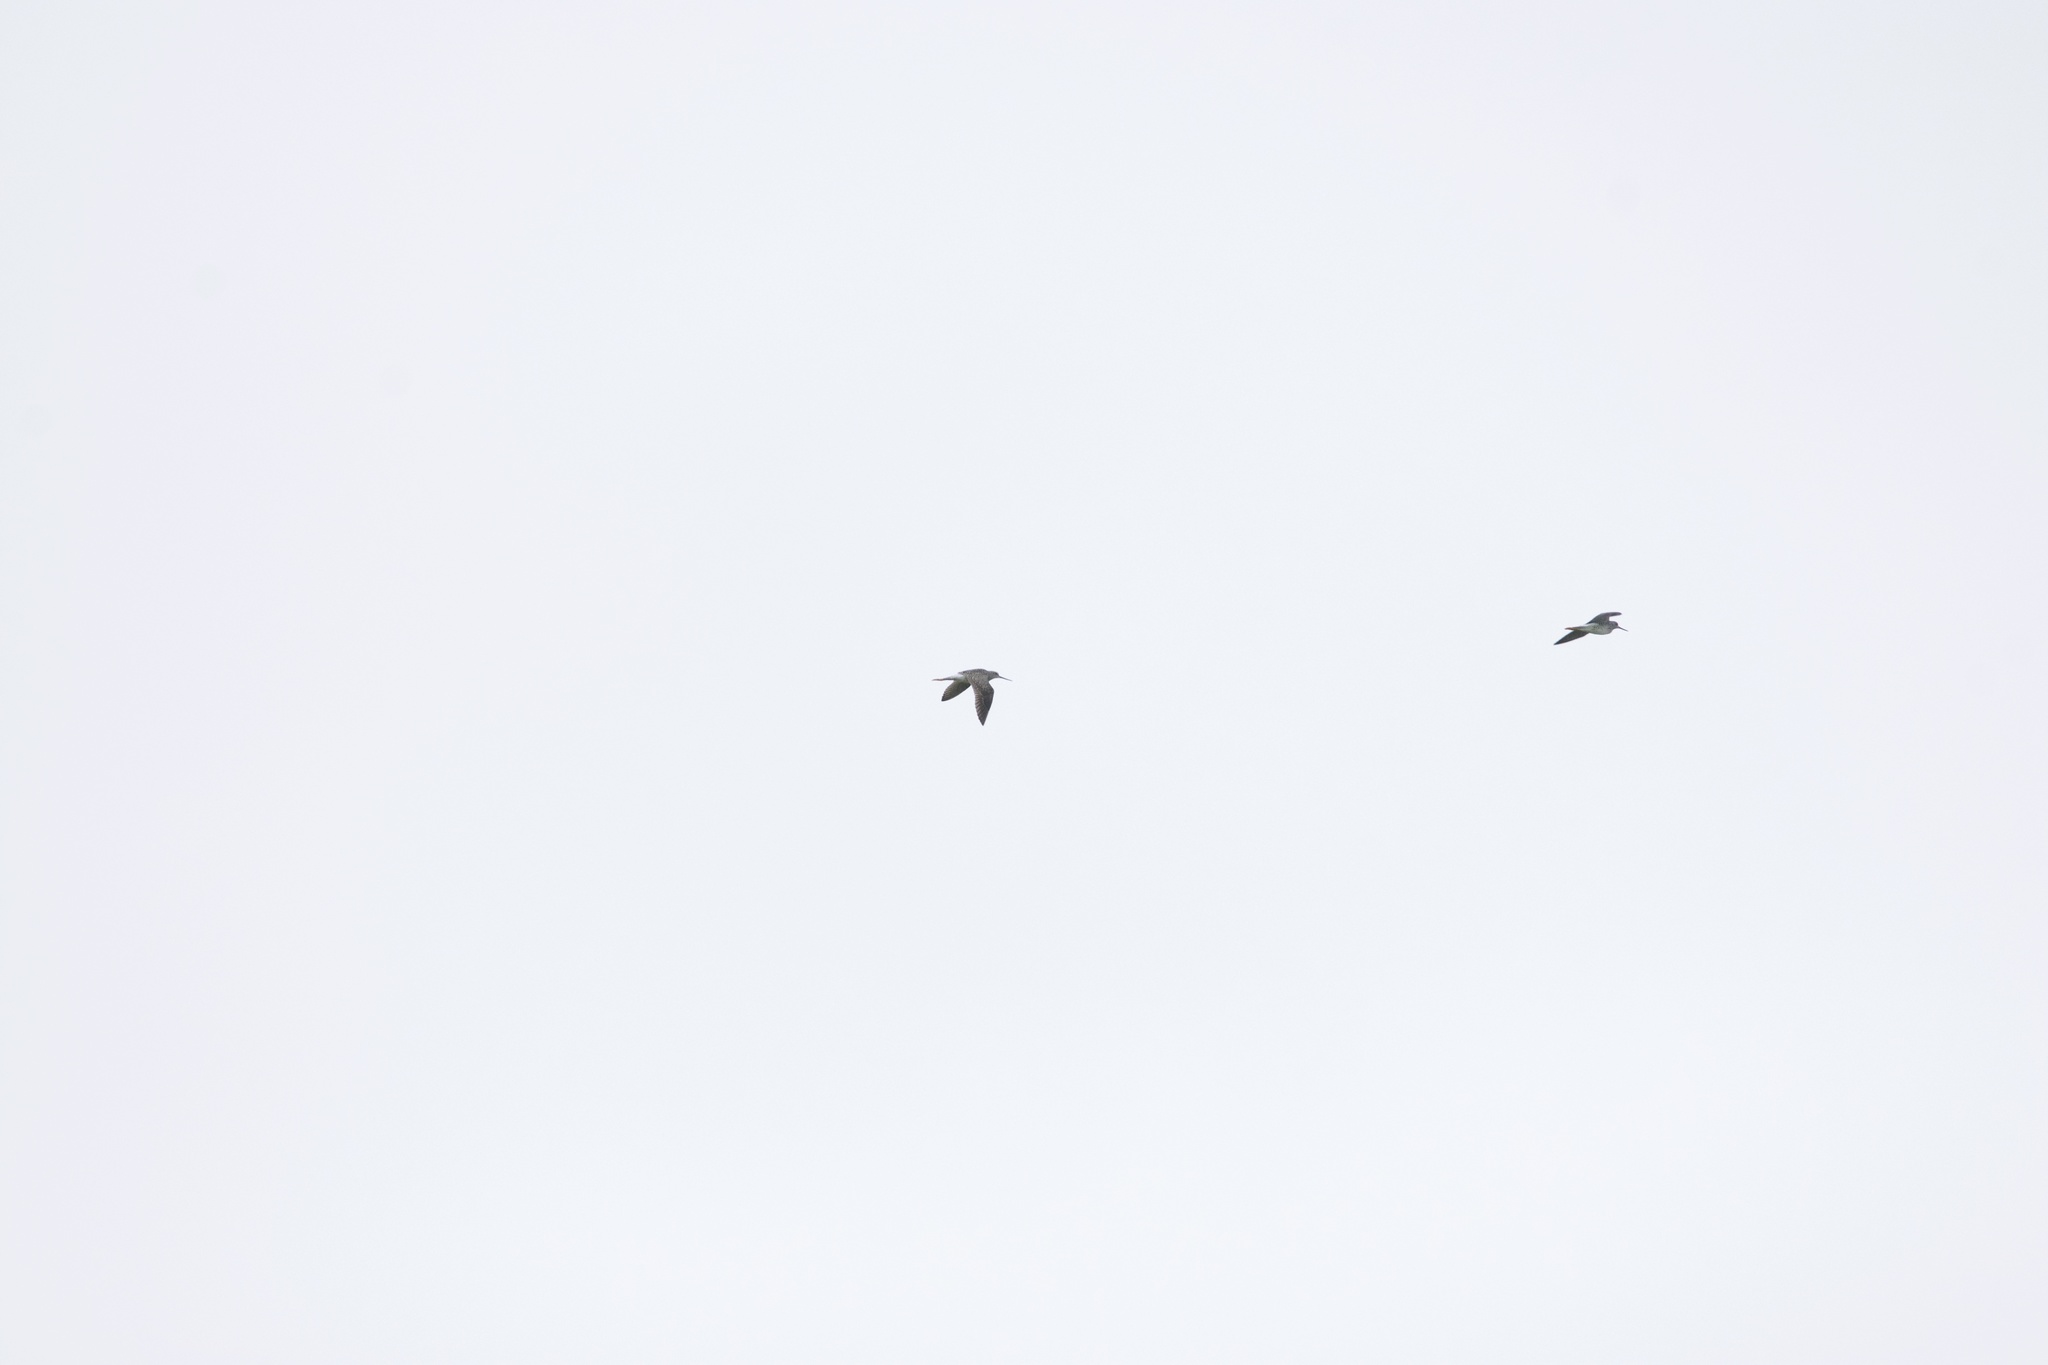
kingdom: Animalia
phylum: Chordata
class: Aves
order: Charadriiformes
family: Scolopacidae
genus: Tringa
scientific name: Tringa melanoleuca
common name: Greater yellowlegs
